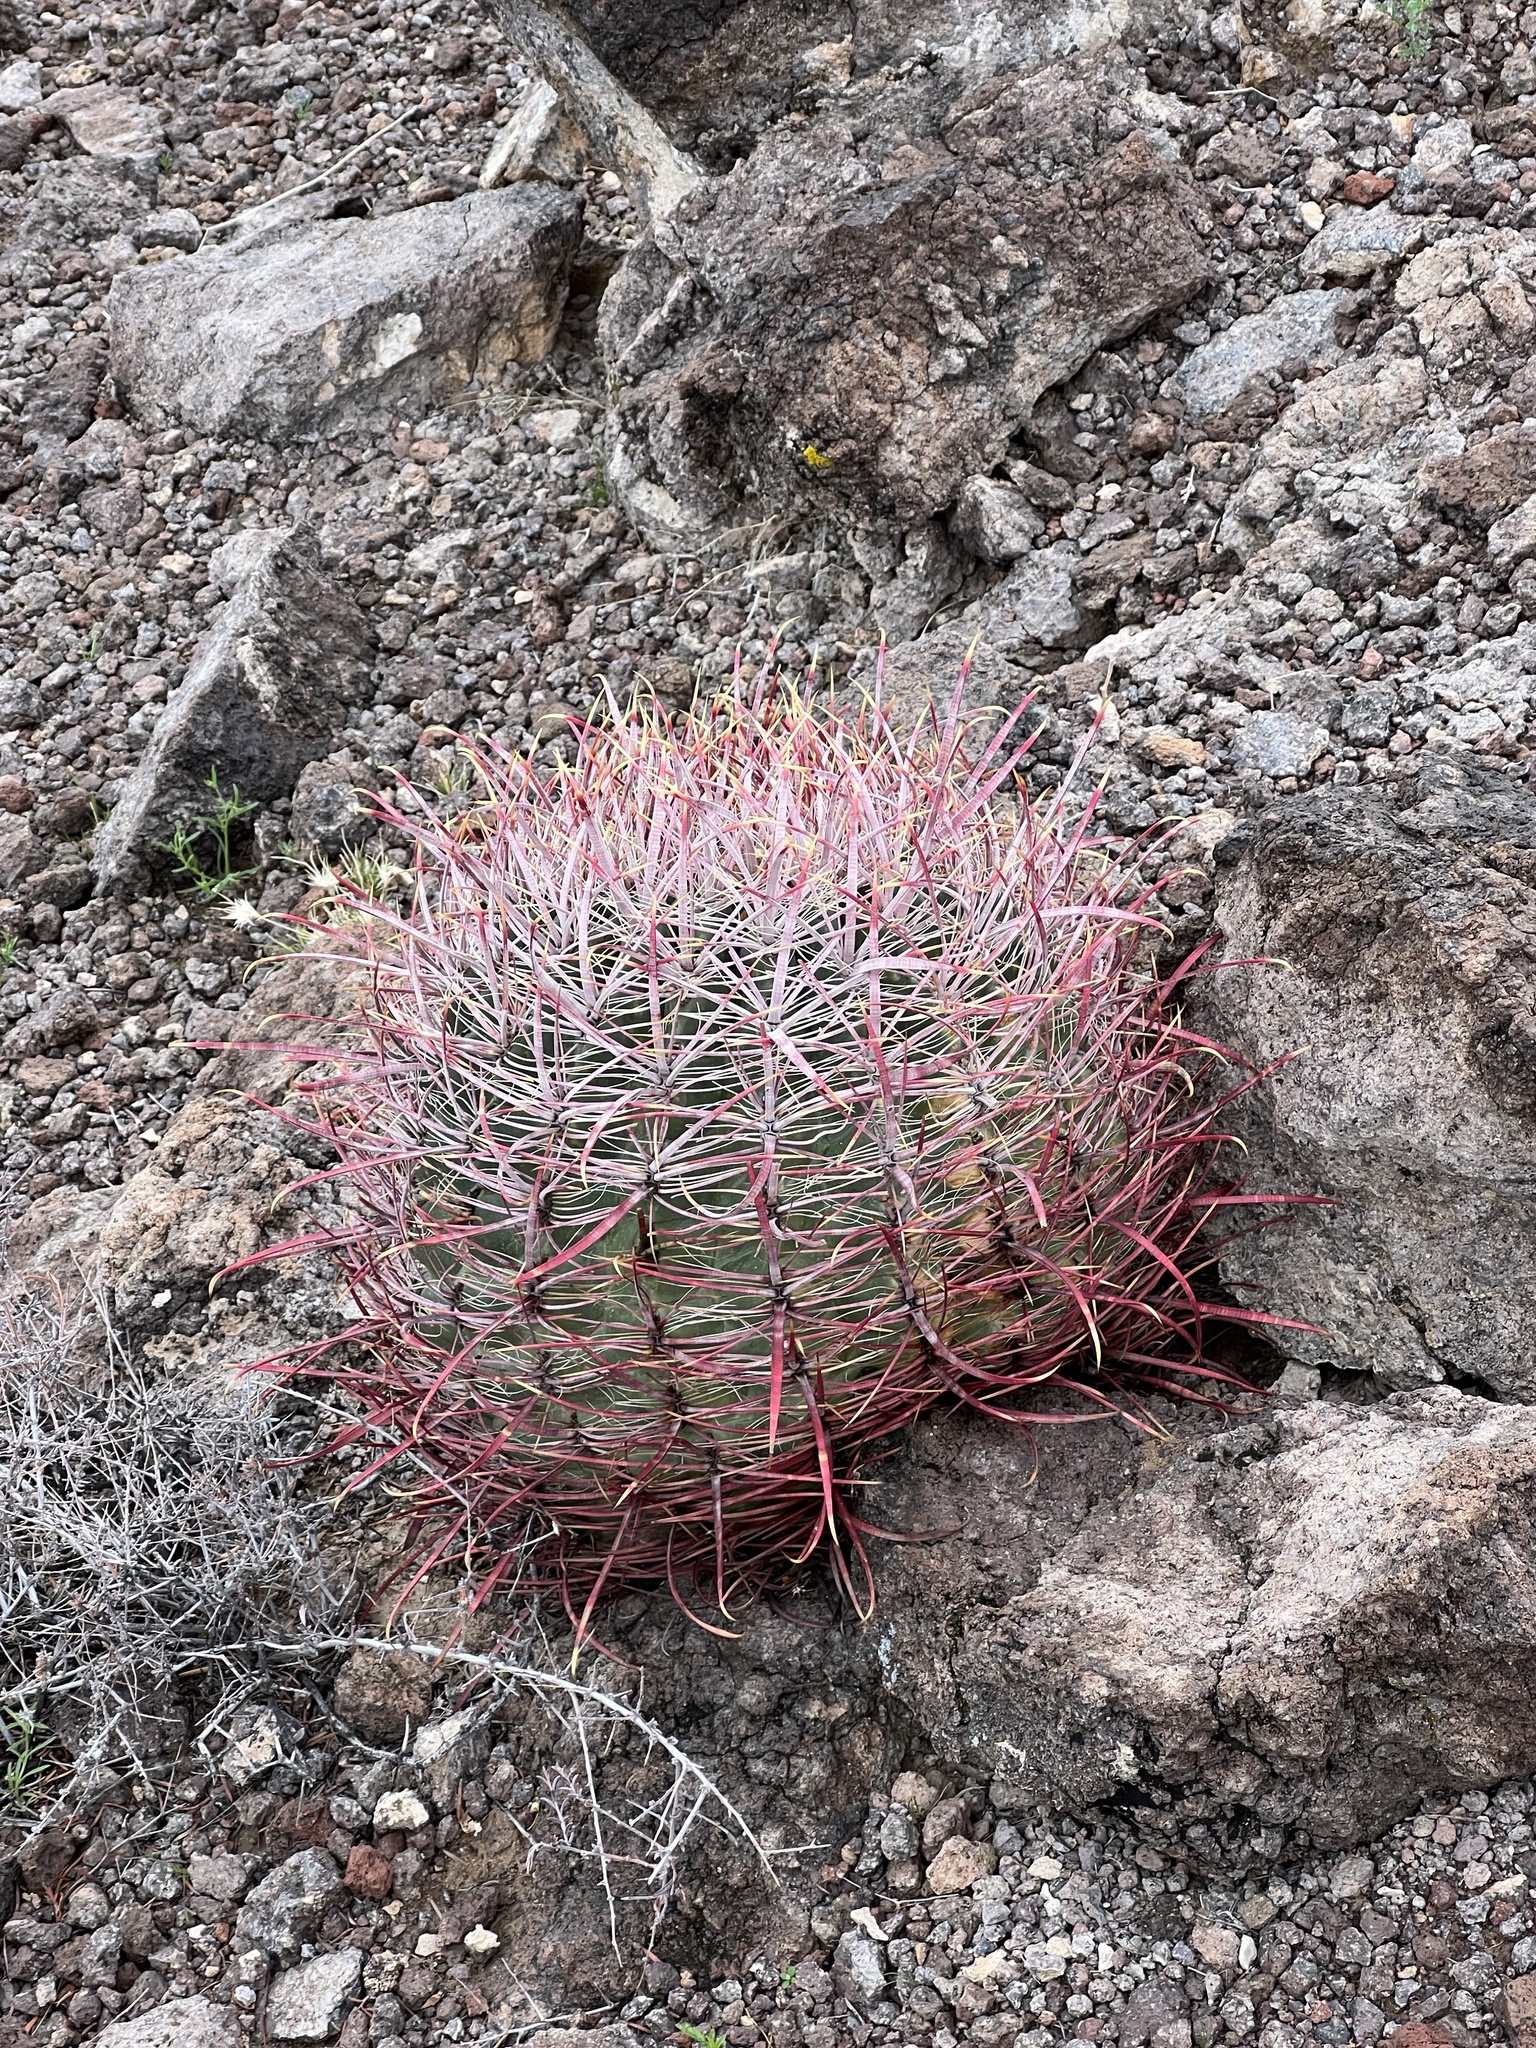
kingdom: Plantae
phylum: Tracheophyta
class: Magnoliopsida
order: Caryophyllales
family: Cactaceae
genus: Ferocactus
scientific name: Ferocactus cylindraceus
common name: California barrel cactus
